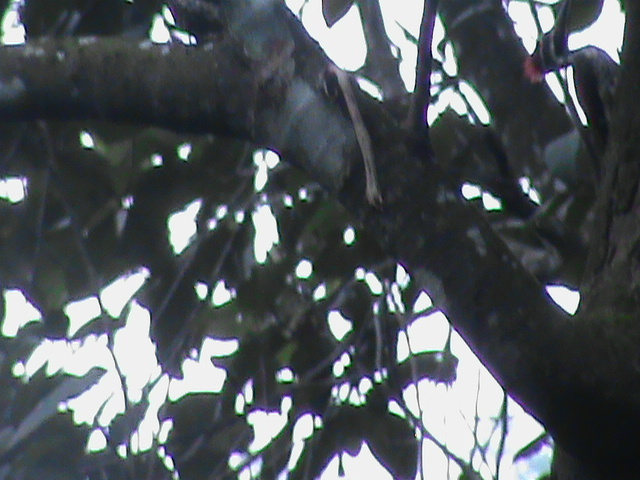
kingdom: Animalia
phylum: Chordata
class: Aves
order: Piciformes
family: Picidae
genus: Dinopium
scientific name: Dinopium benghalense
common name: Black-rumped flameback
